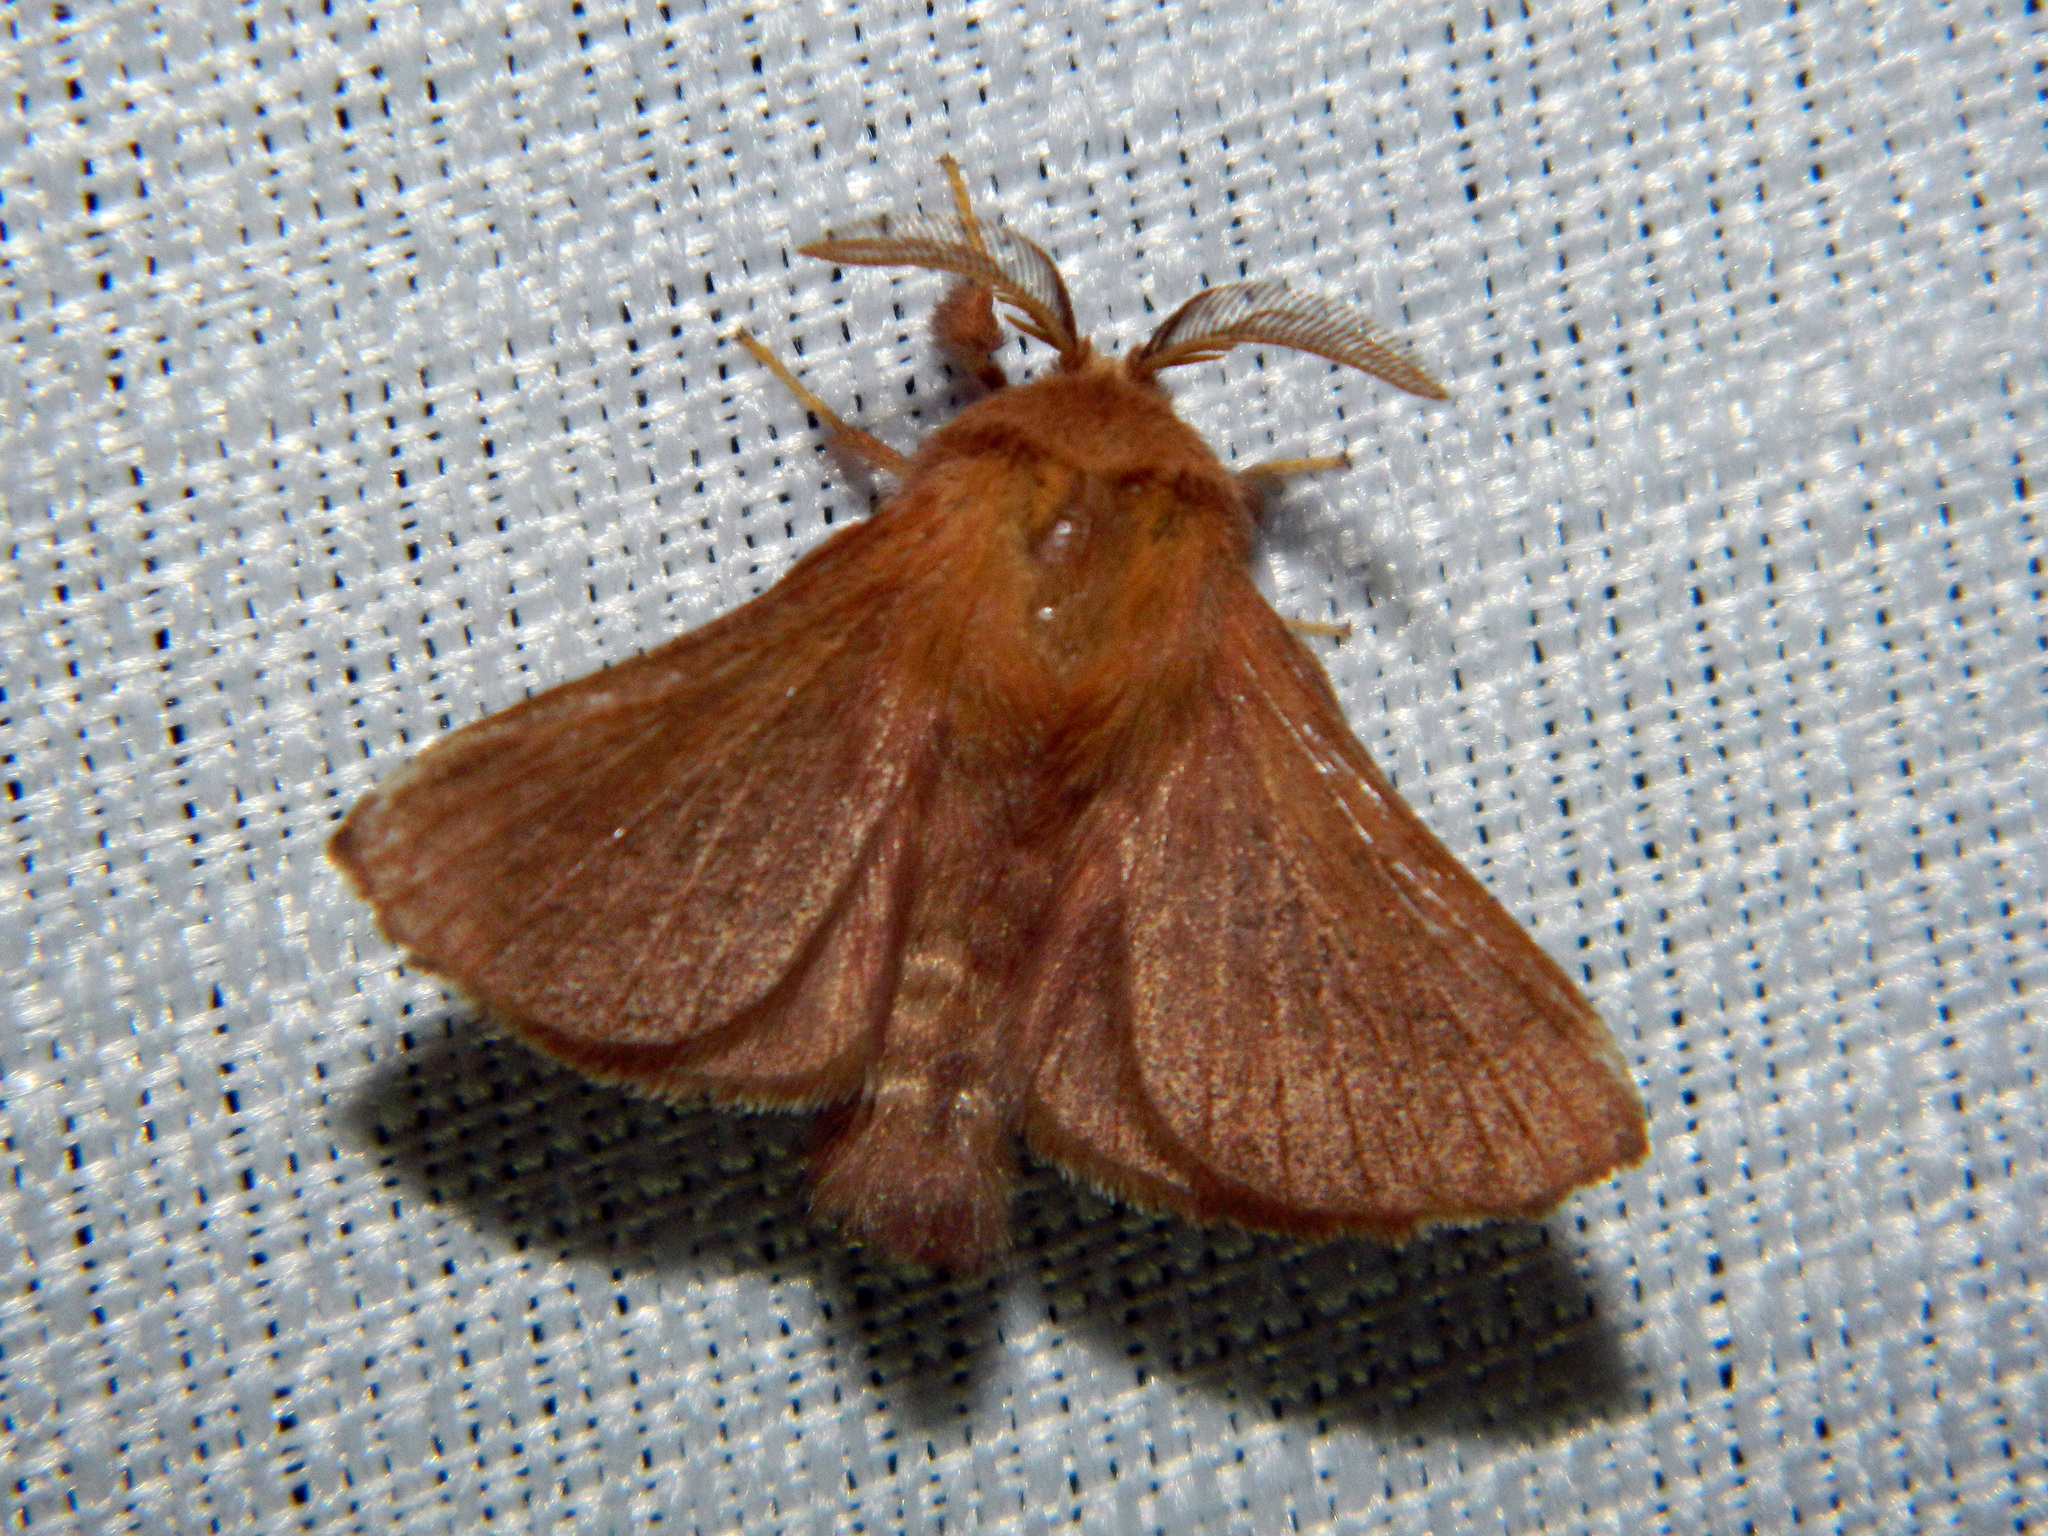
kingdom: Animalia
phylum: Arthropoda
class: Insecta
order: Lepidoptera
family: Lasiocampidae
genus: Malacosoma
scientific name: Malacosoma disstria
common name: Forest tent caterpillar
